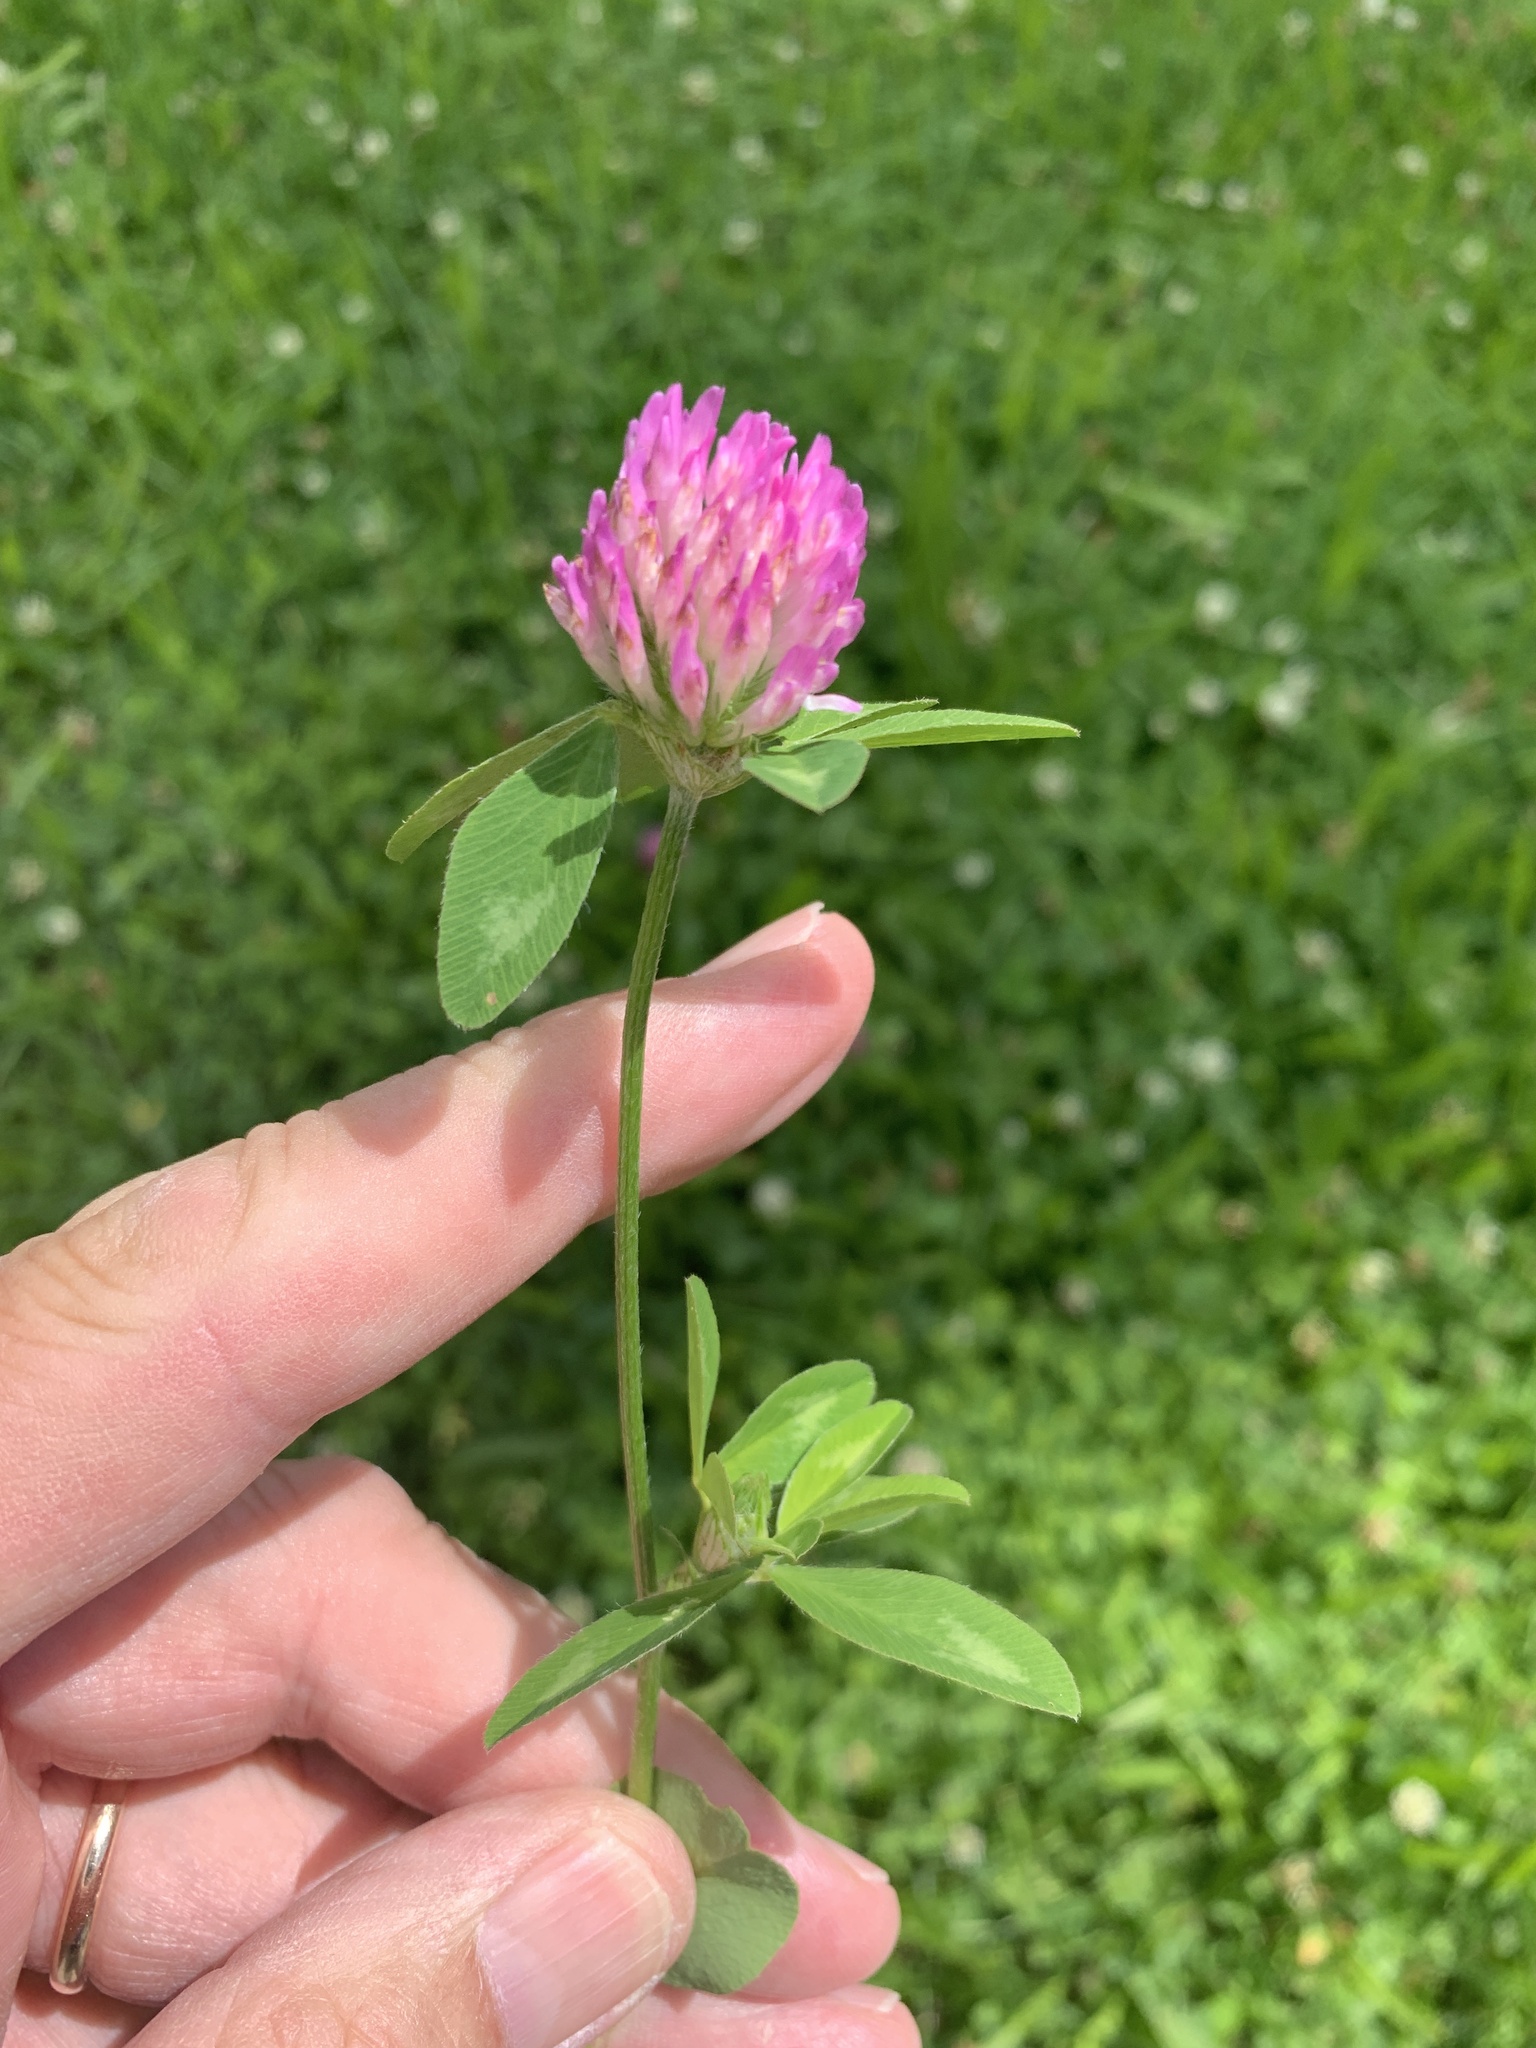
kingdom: Plantae
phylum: Tracheophyta
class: Magnoliopsida
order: Fabales
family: Fabaceae
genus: Trifolium
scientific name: Trifolium pratense
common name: Red clover
